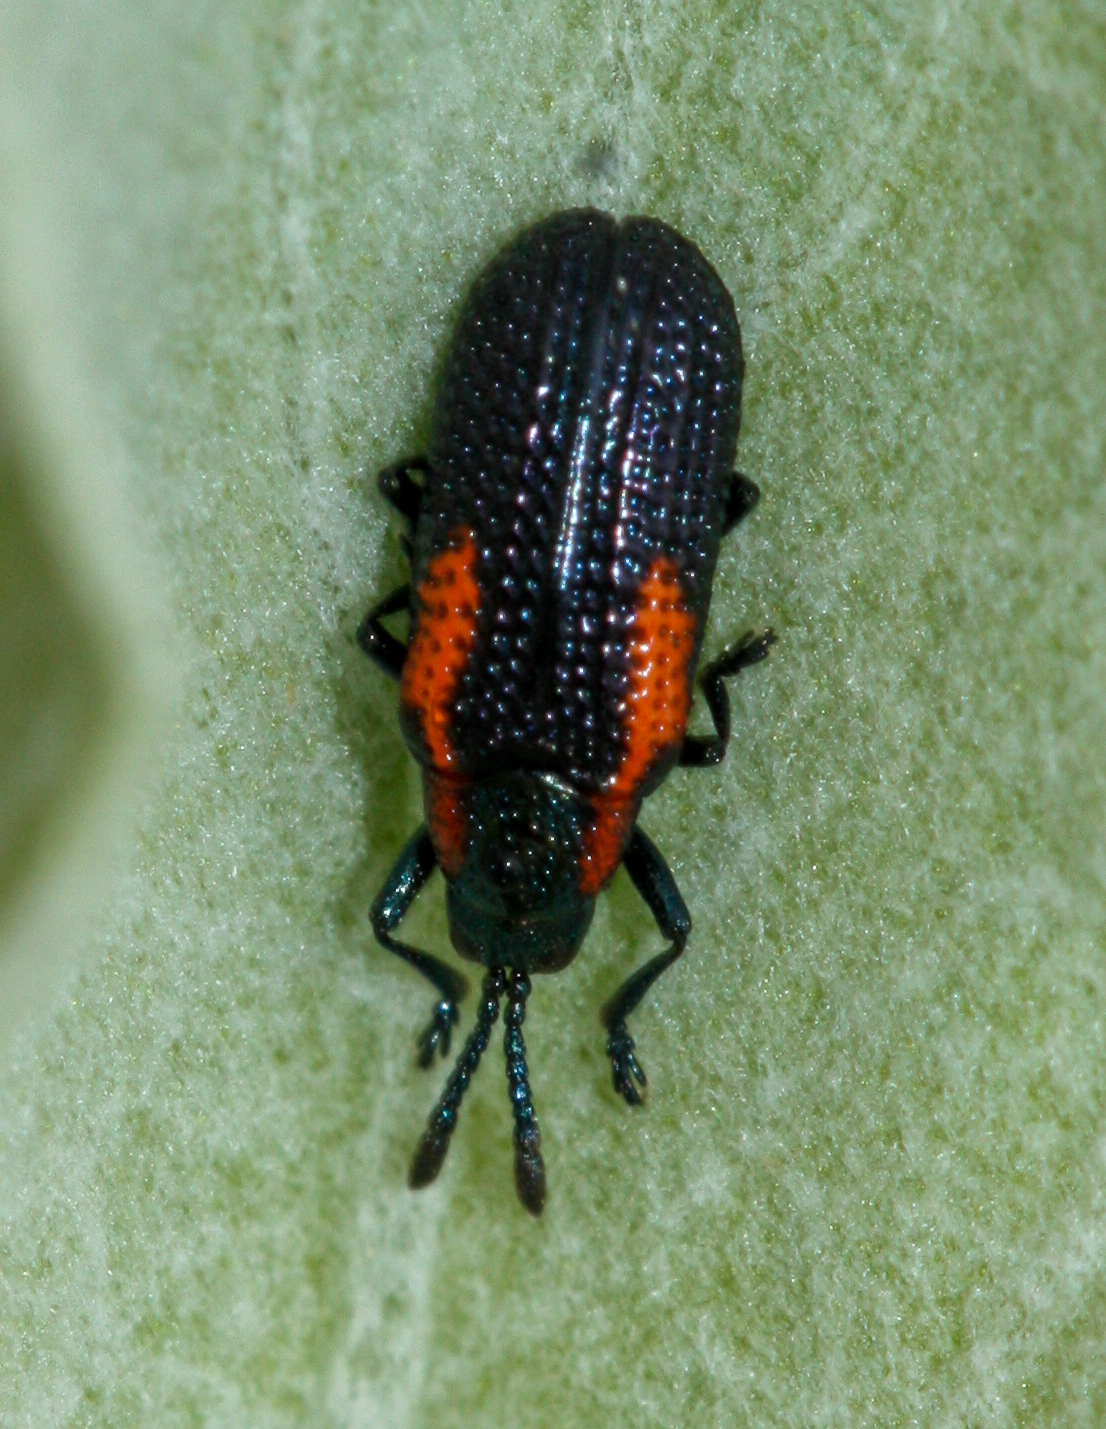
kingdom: Animalia
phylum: Arthropoda
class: Insecta
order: Coleoptera
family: Chrysomelidae
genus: Microrhopala
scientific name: Microrhopala rubrolineata
